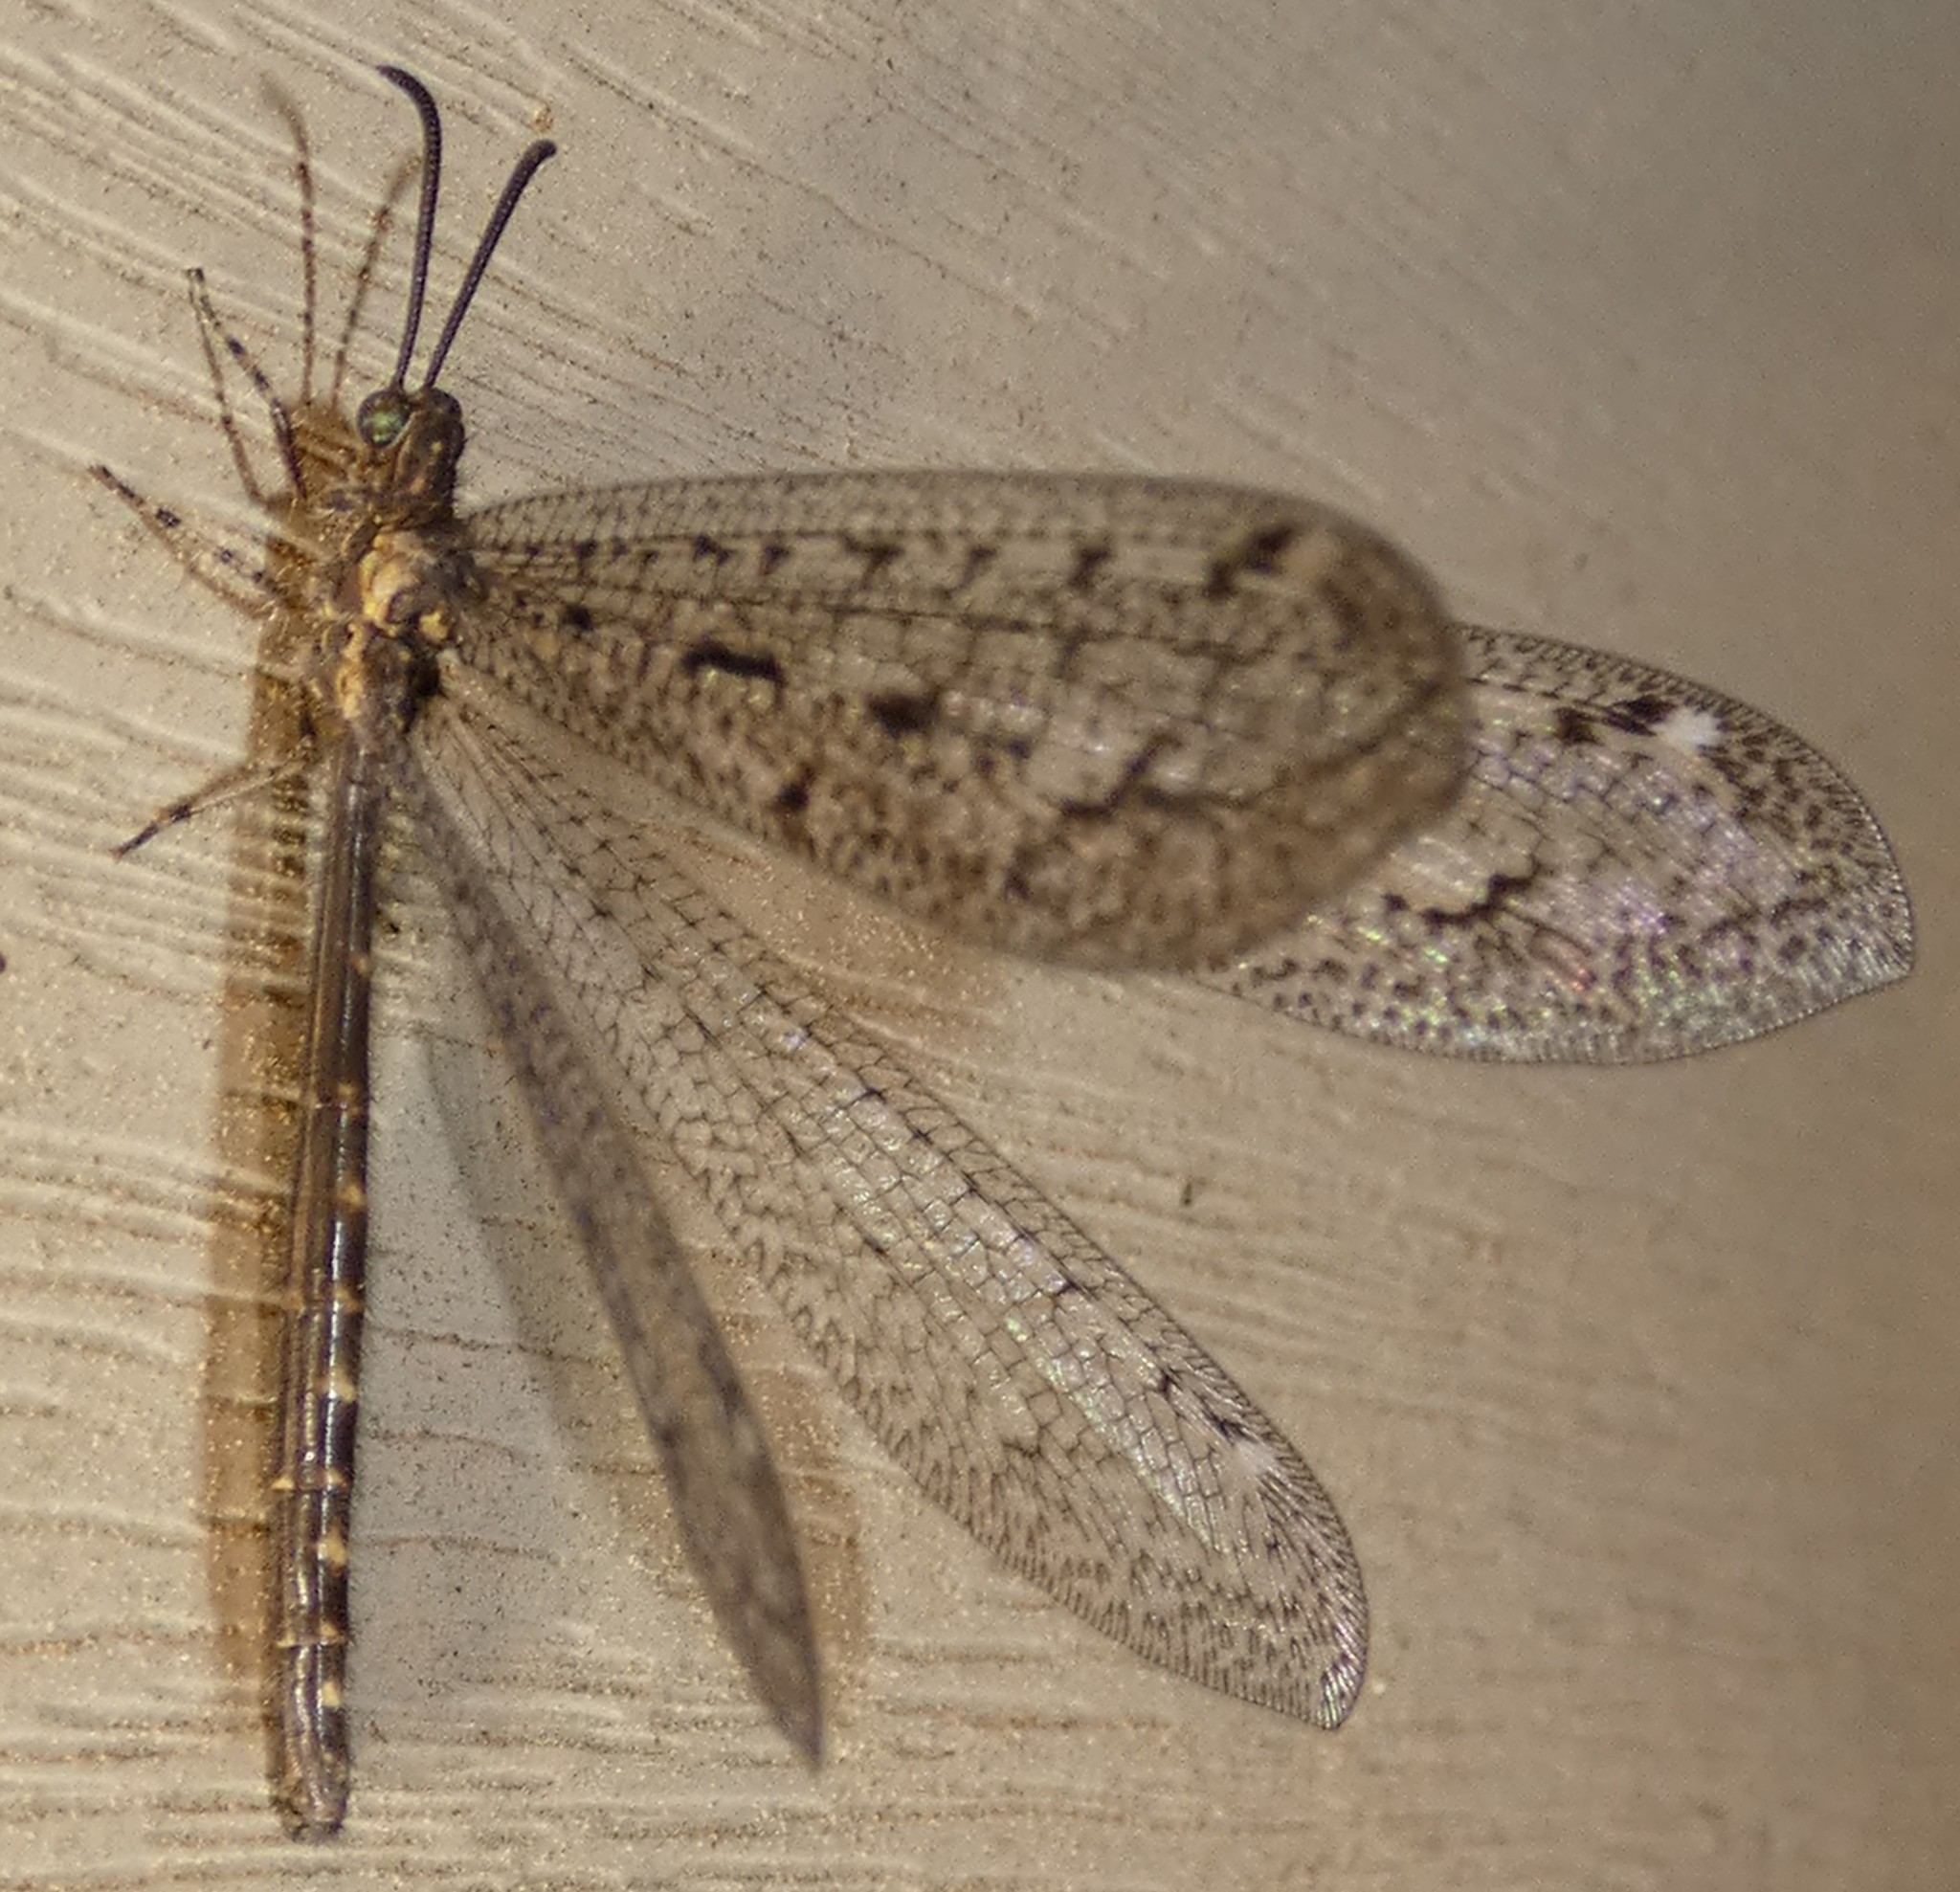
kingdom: Animalia
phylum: Arthropoda
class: Insecta
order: Neuroptera
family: Myrmeleontidae
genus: Brachynemurus
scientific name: Brachynemurus nebulosus
